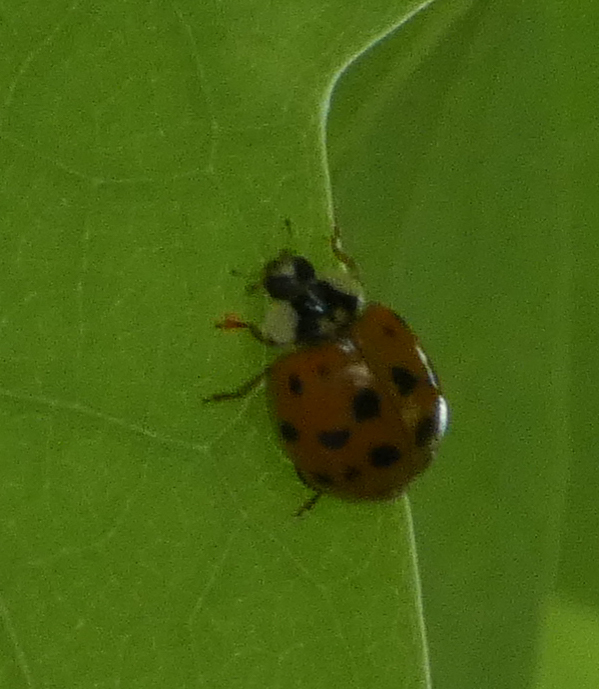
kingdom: Animalia
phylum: Arthropoda
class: Insecta
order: Coleoptera
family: Coccinellidae
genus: Harmonia
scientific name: Harmonia axyridis
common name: Harlequin ladybird
